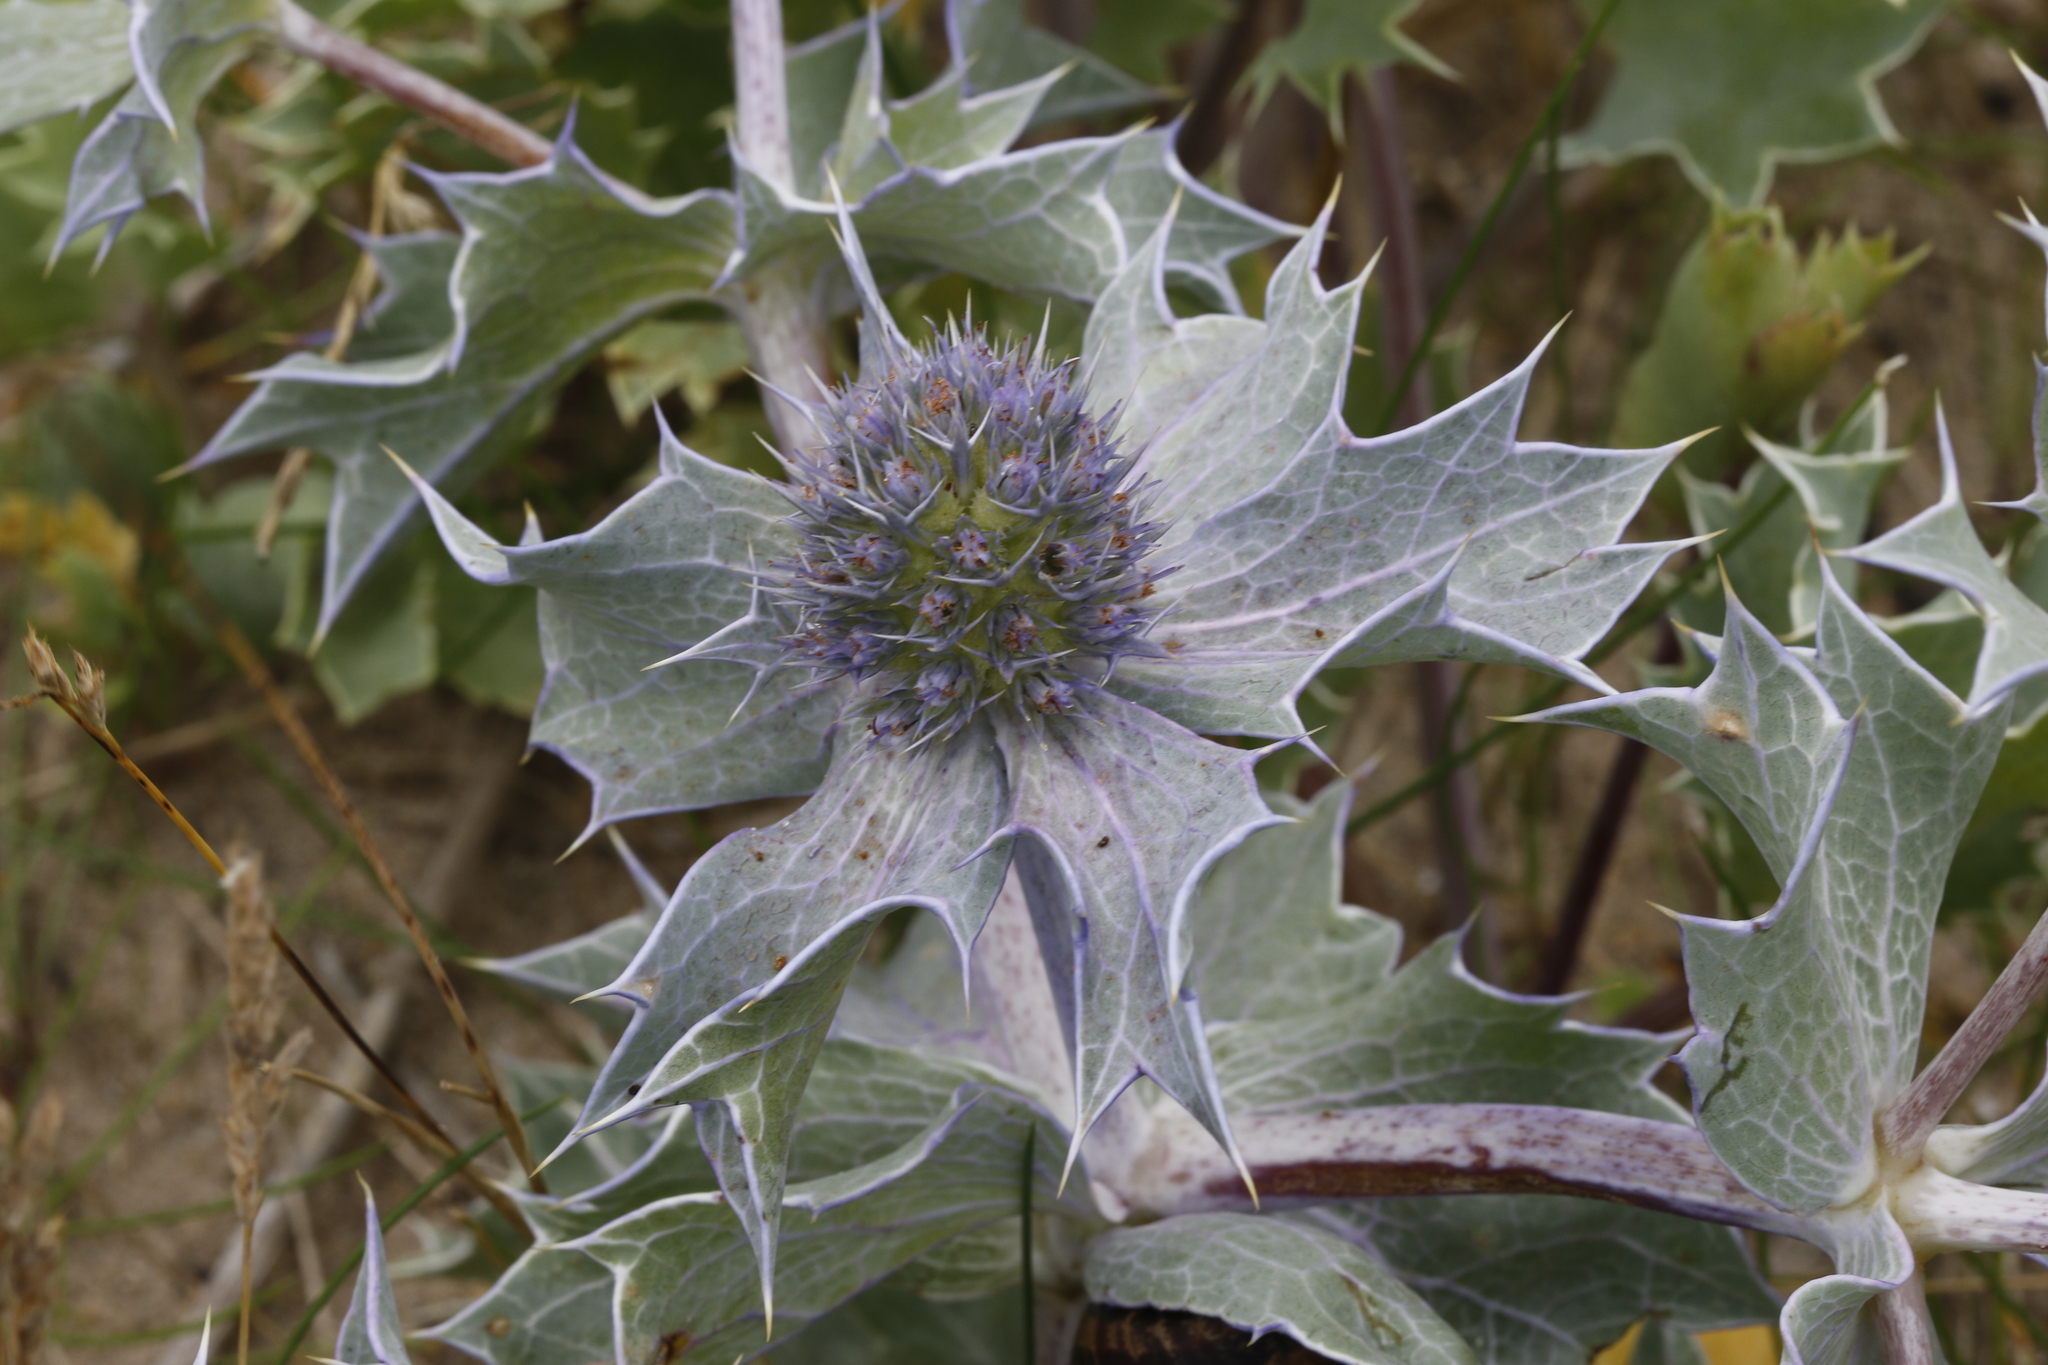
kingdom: Plantae
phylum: Tracheophyta
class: Magnoliopsida
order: Apiales
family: Apiaceae
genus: Eryngium
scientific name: Eryngium maritimum
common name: Sea-holly
